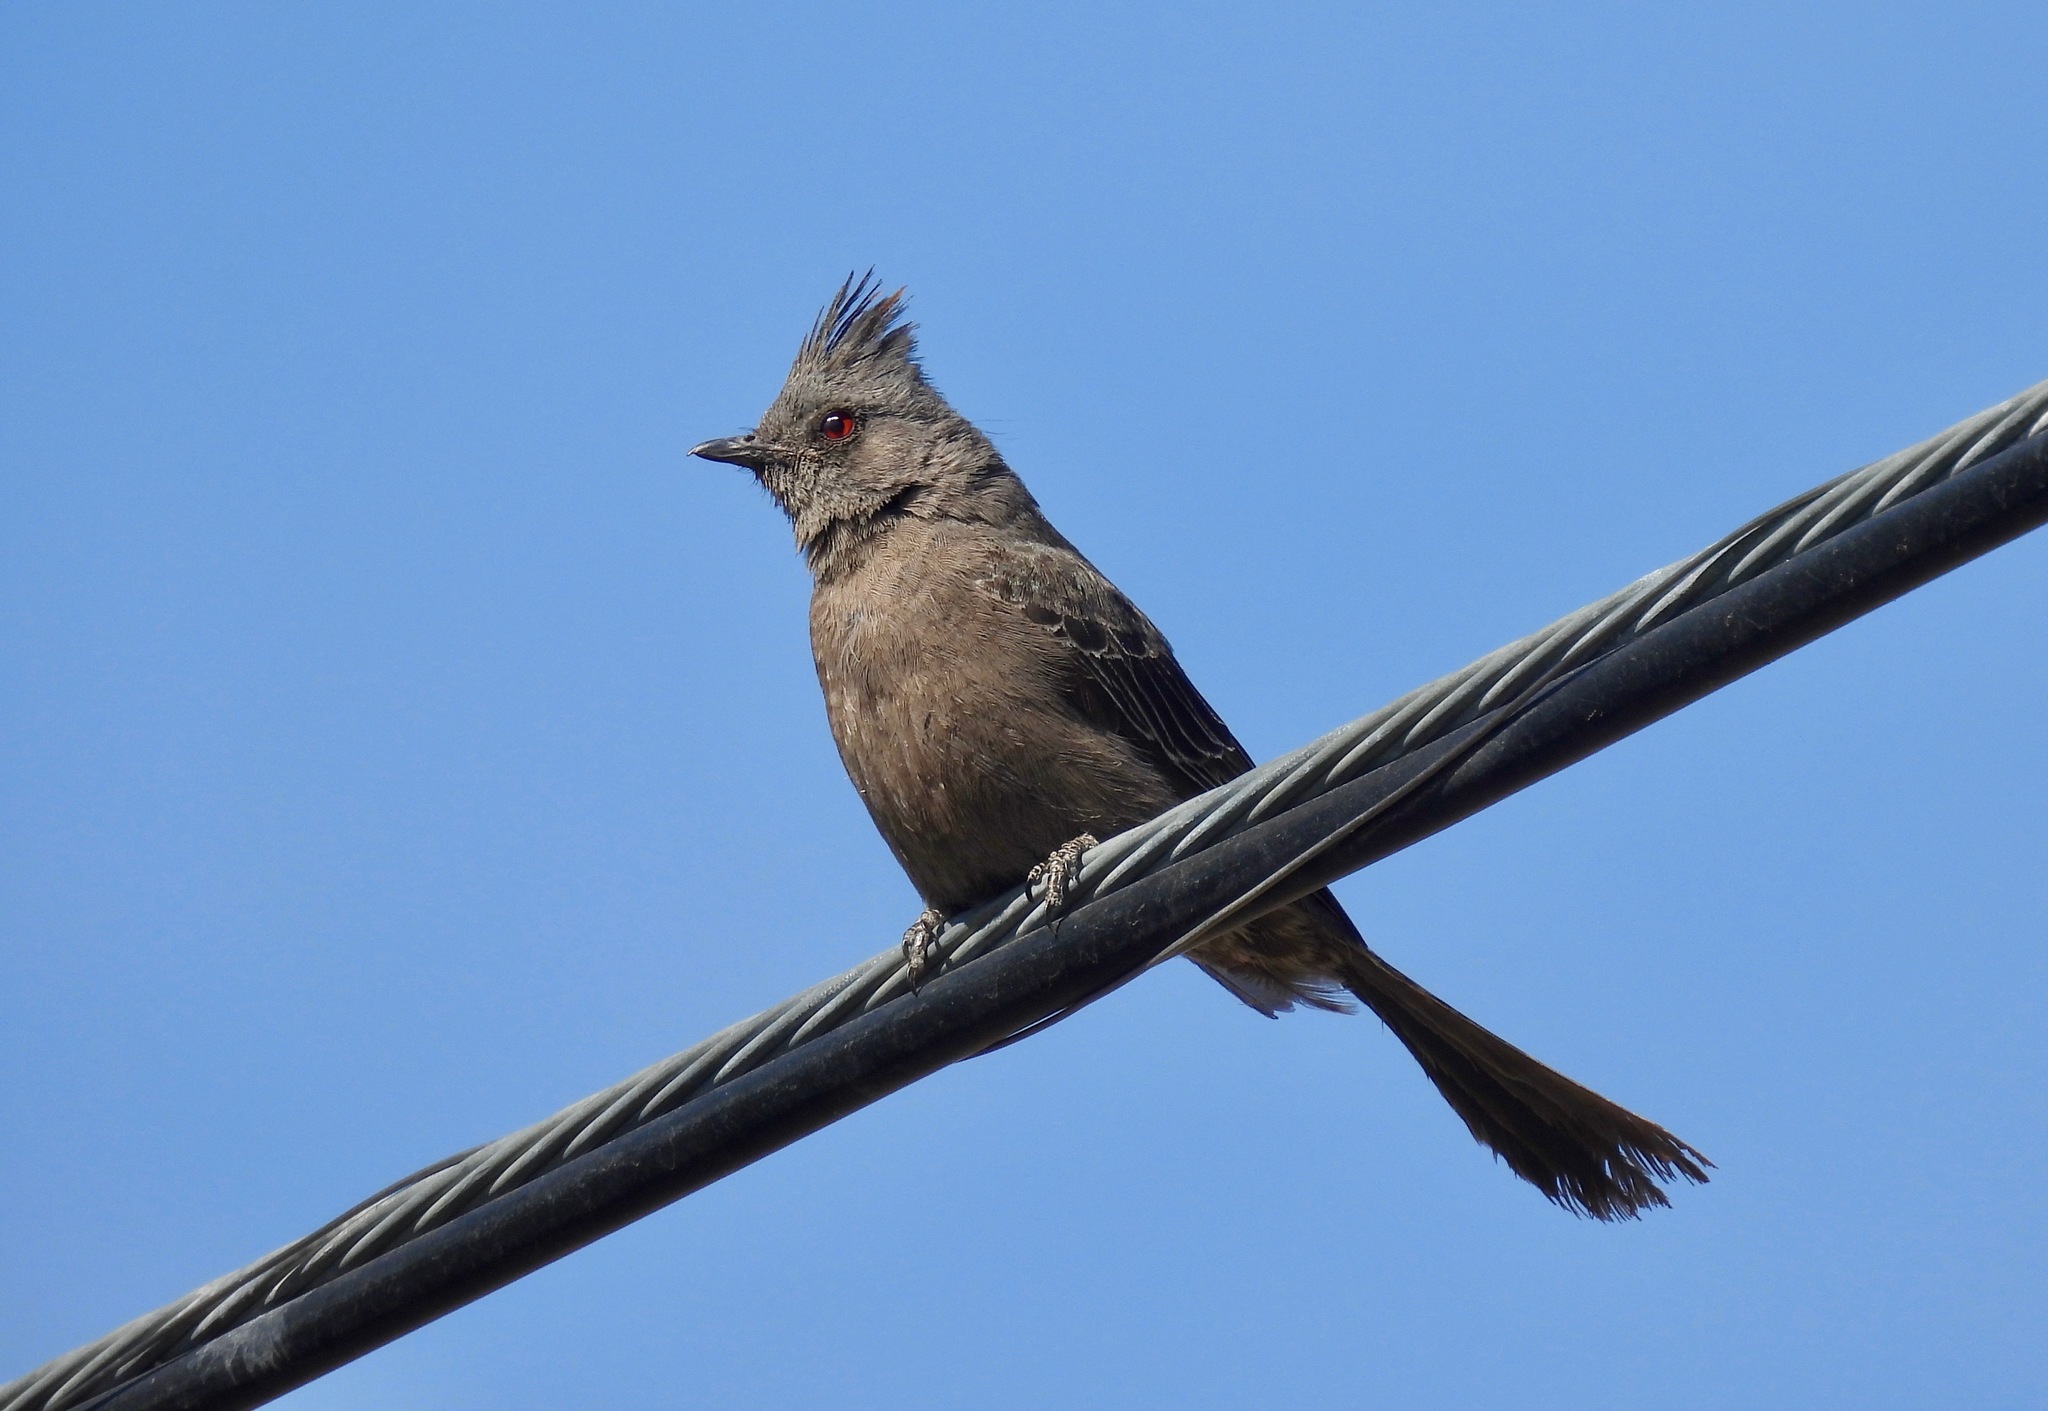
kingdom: Animalia
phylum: Chordata
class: Aves
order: Passeriformes
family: Ptilogonatidae
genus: Phainopepla
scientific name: Phainopepla nitens
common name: Phainopepla
